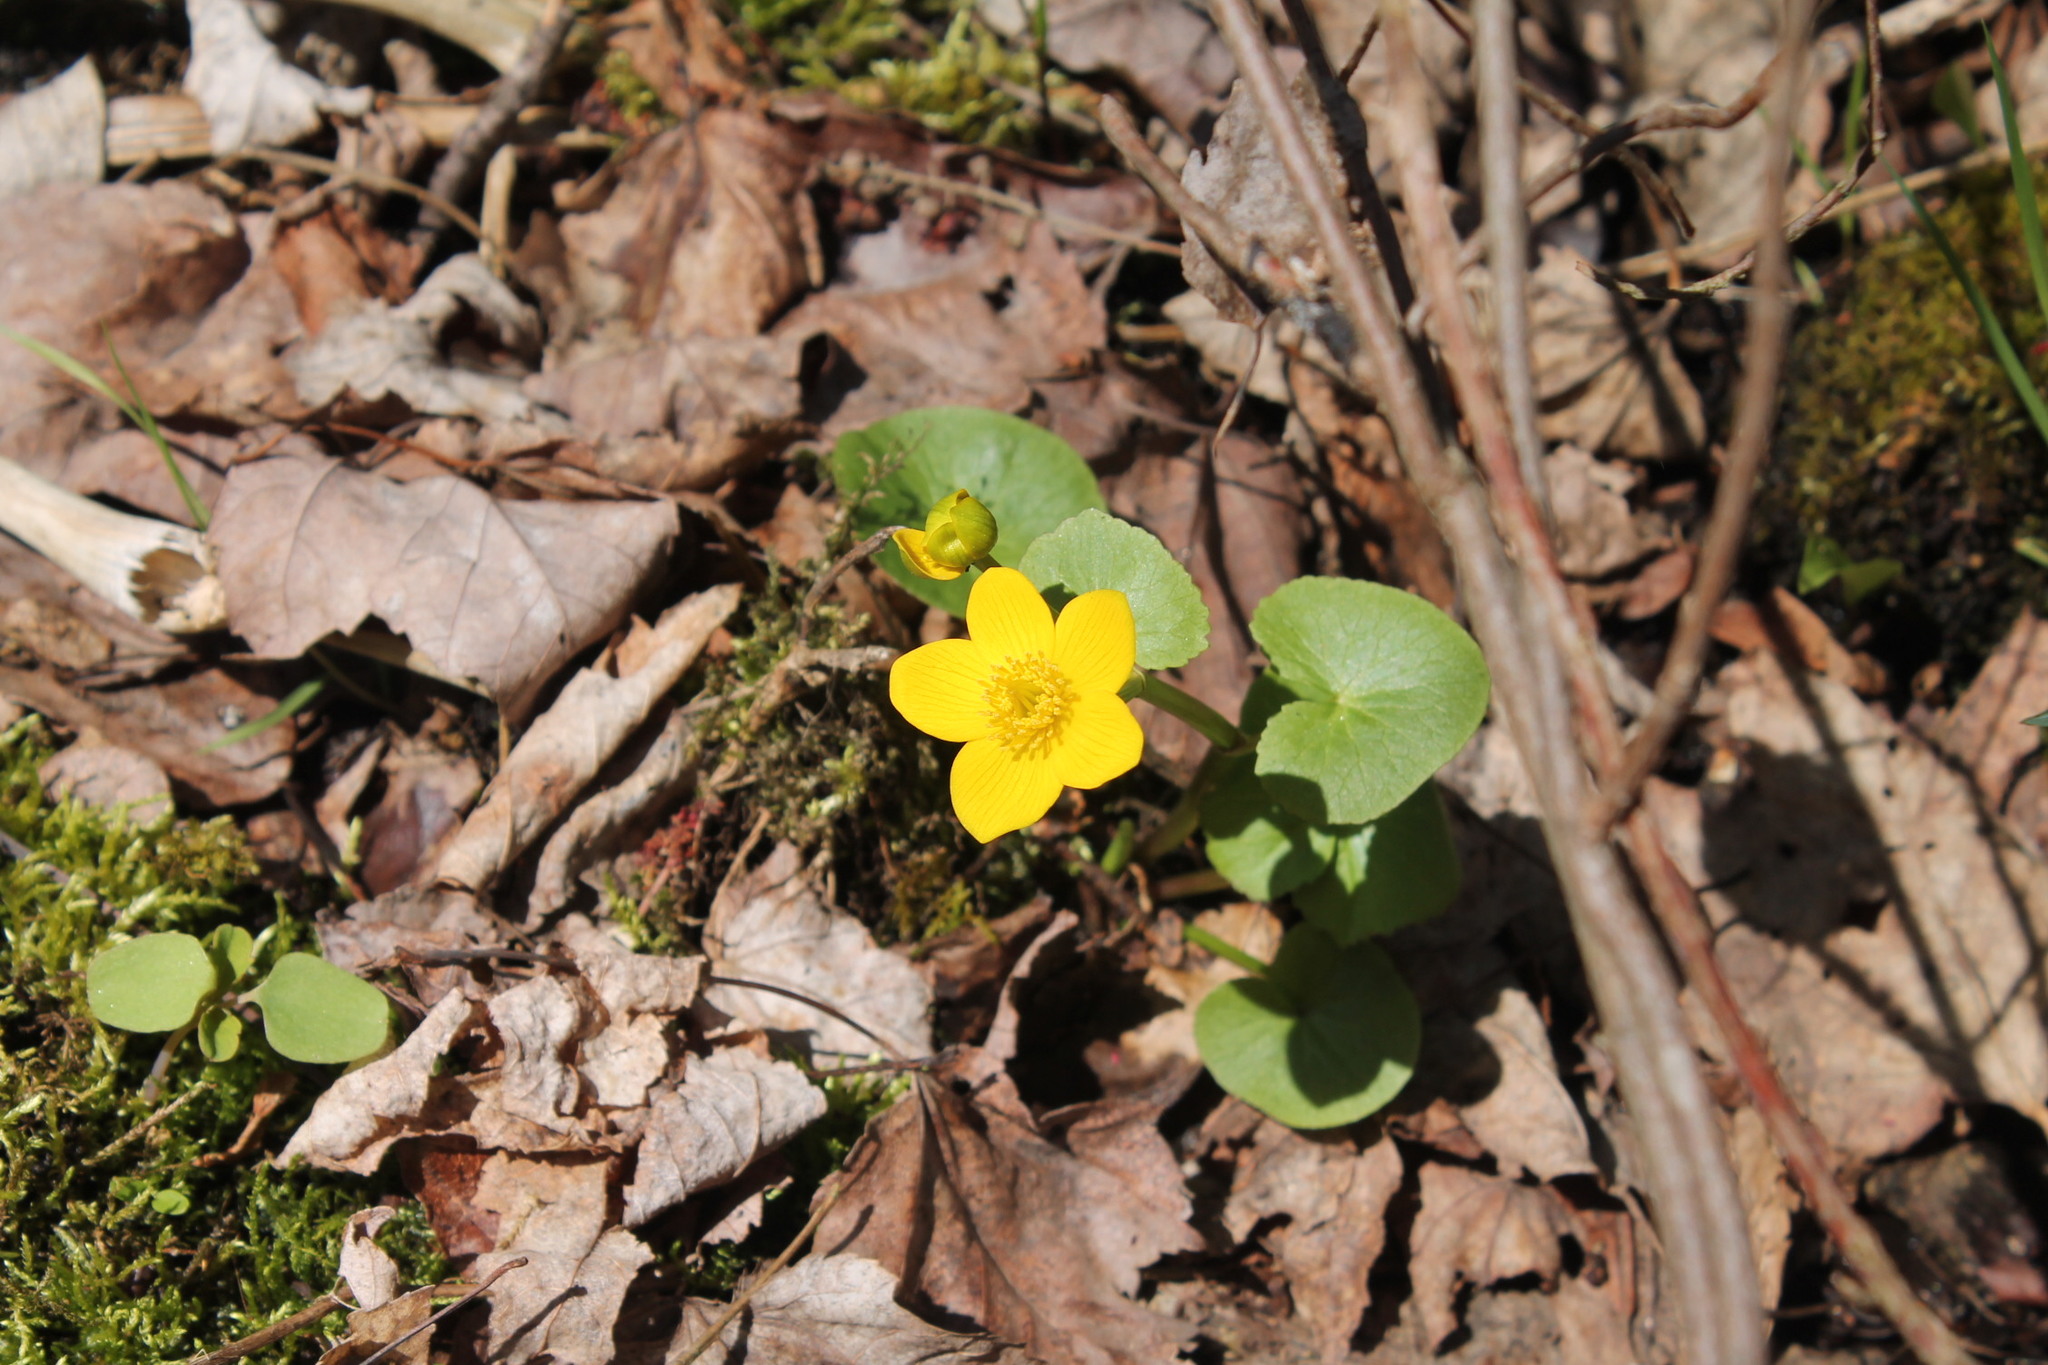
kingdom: Plantae
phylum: Tracheophyta
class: Magnoliopsida
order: Ranunculales
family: Ranunculaceae
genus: Caltha
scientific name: Caltha palustris
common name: Marsh marigold
